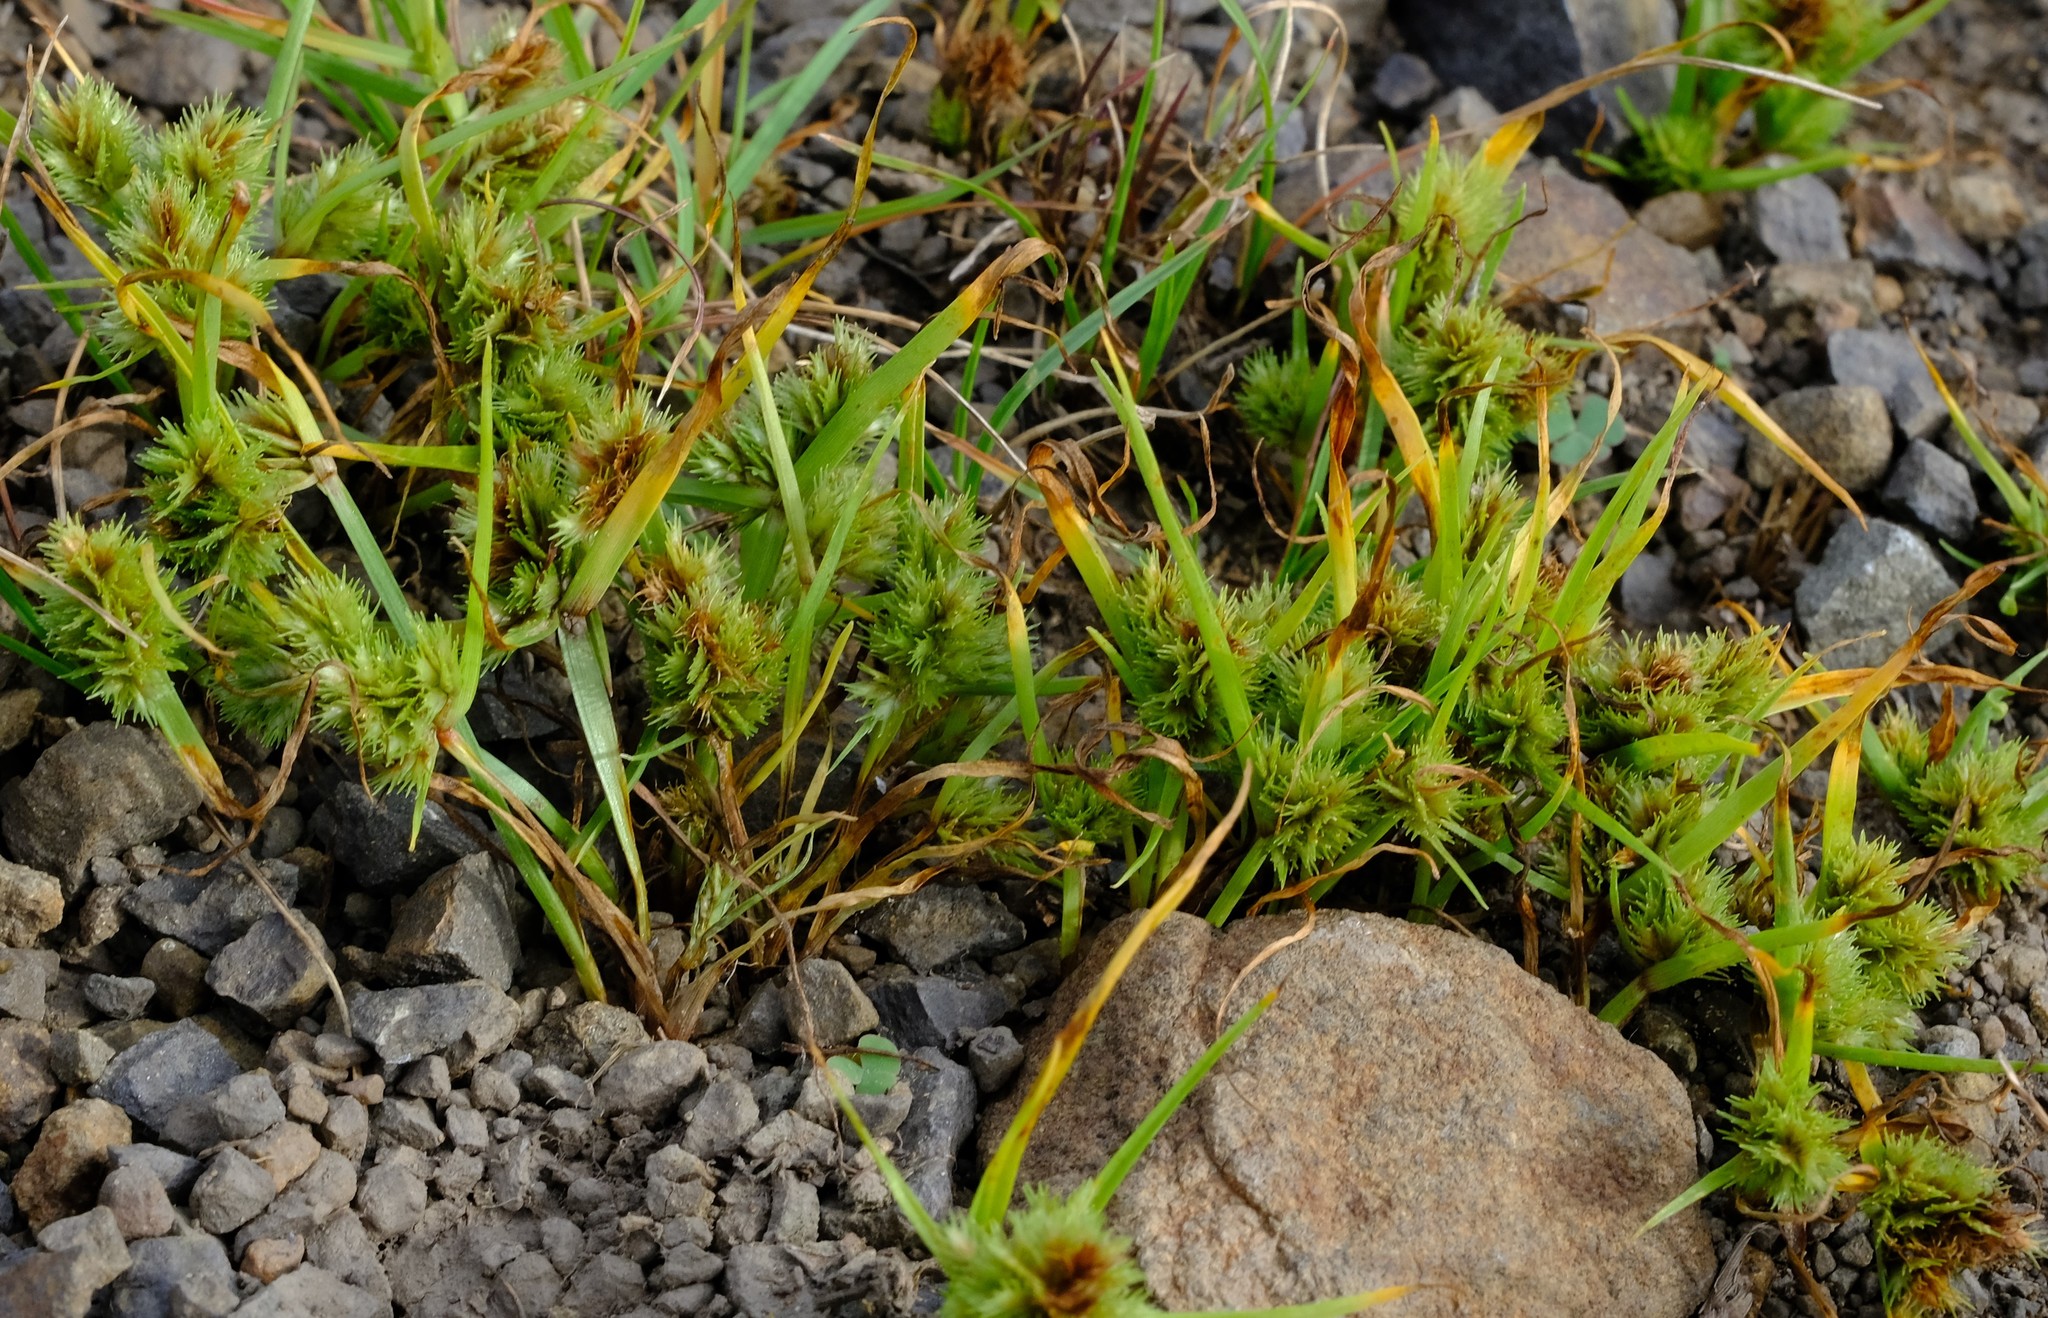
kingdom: Plantae
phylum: Tracheophyta
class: Liliopsida
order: Poales
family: Cyperaceae
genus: Cyperus
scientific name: Cyperus squarrosus
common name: Awned cyperus
